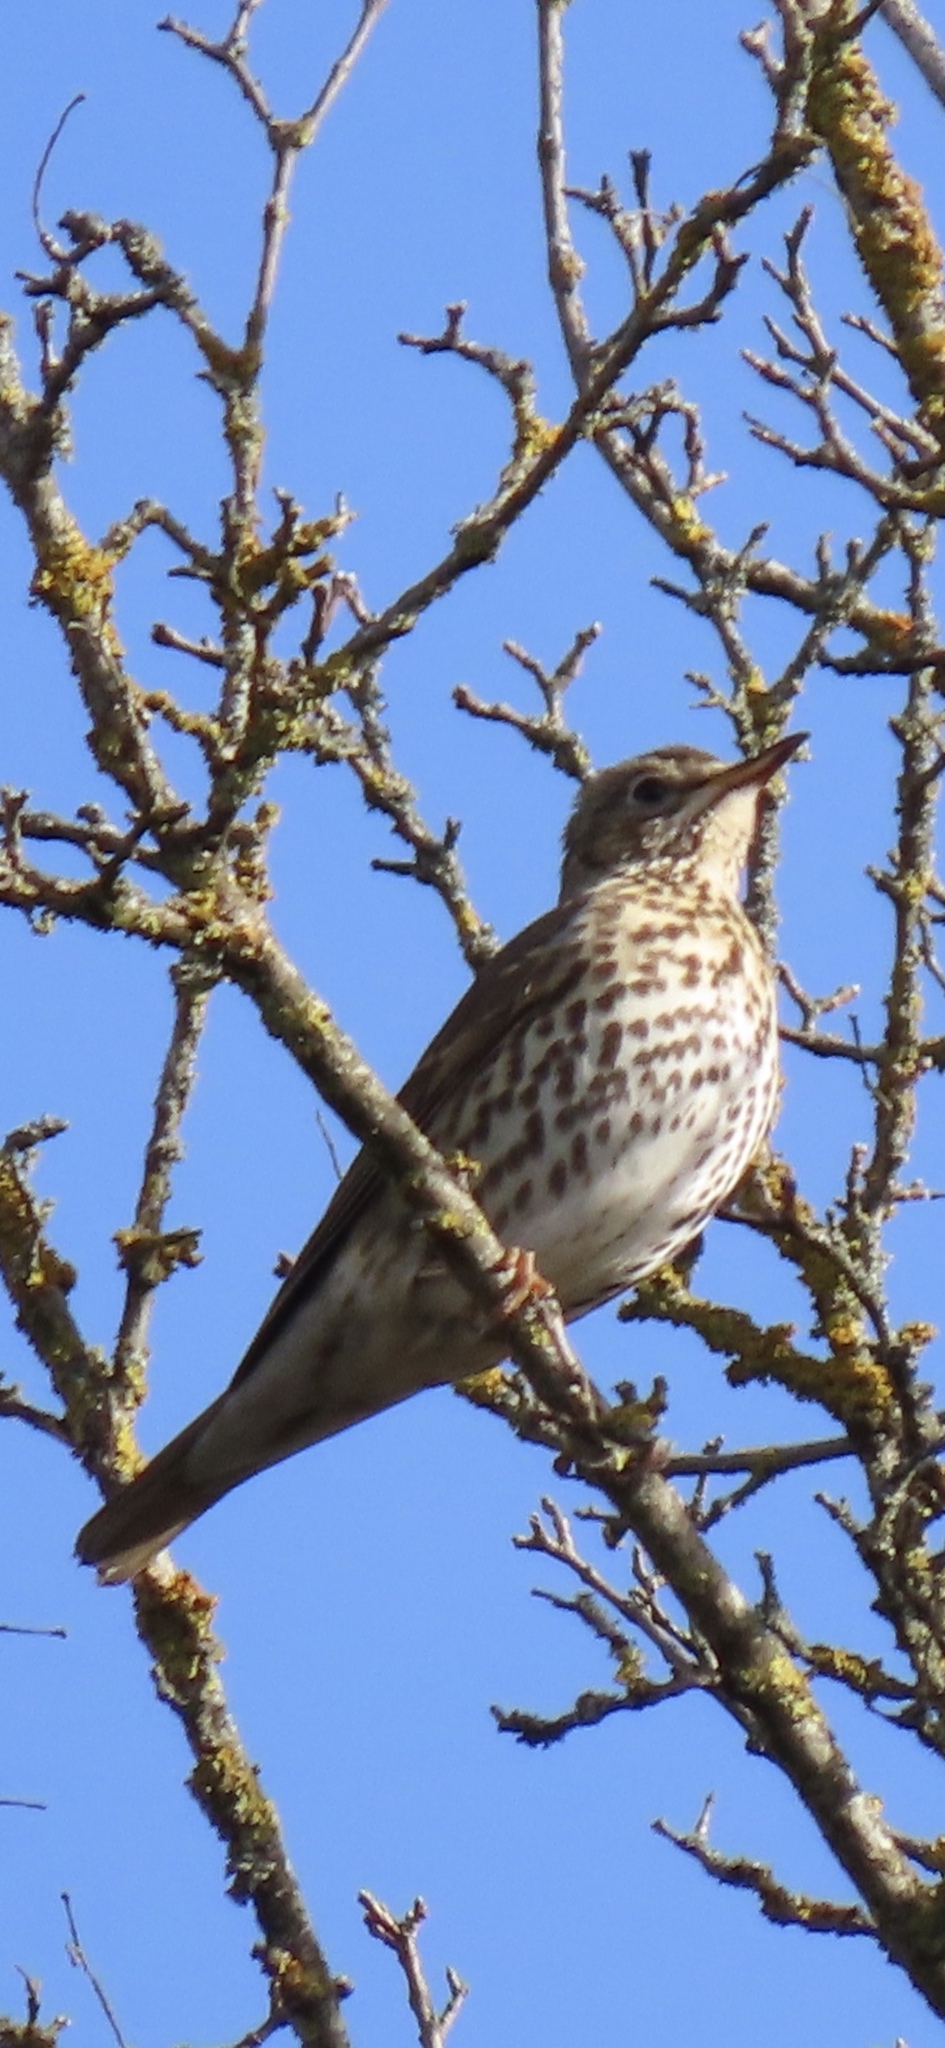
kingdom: Animalia
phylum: Chordata
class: Aves
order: Passeriformes
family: Turdidae
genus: Turdus
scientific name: Turdus philomelos
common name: Song thrush
